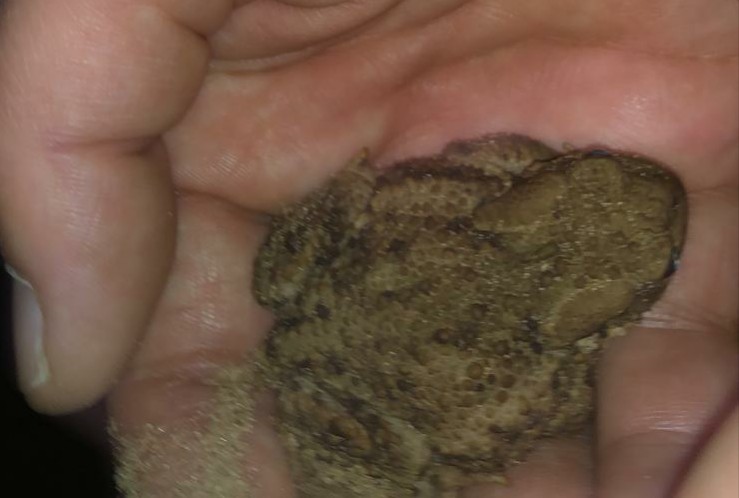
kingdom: Animalia
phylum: Chordata
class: Amphibia
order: Anura
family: Bufonidae
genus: Bufo
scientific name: Bufo bufo
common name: Common toad
